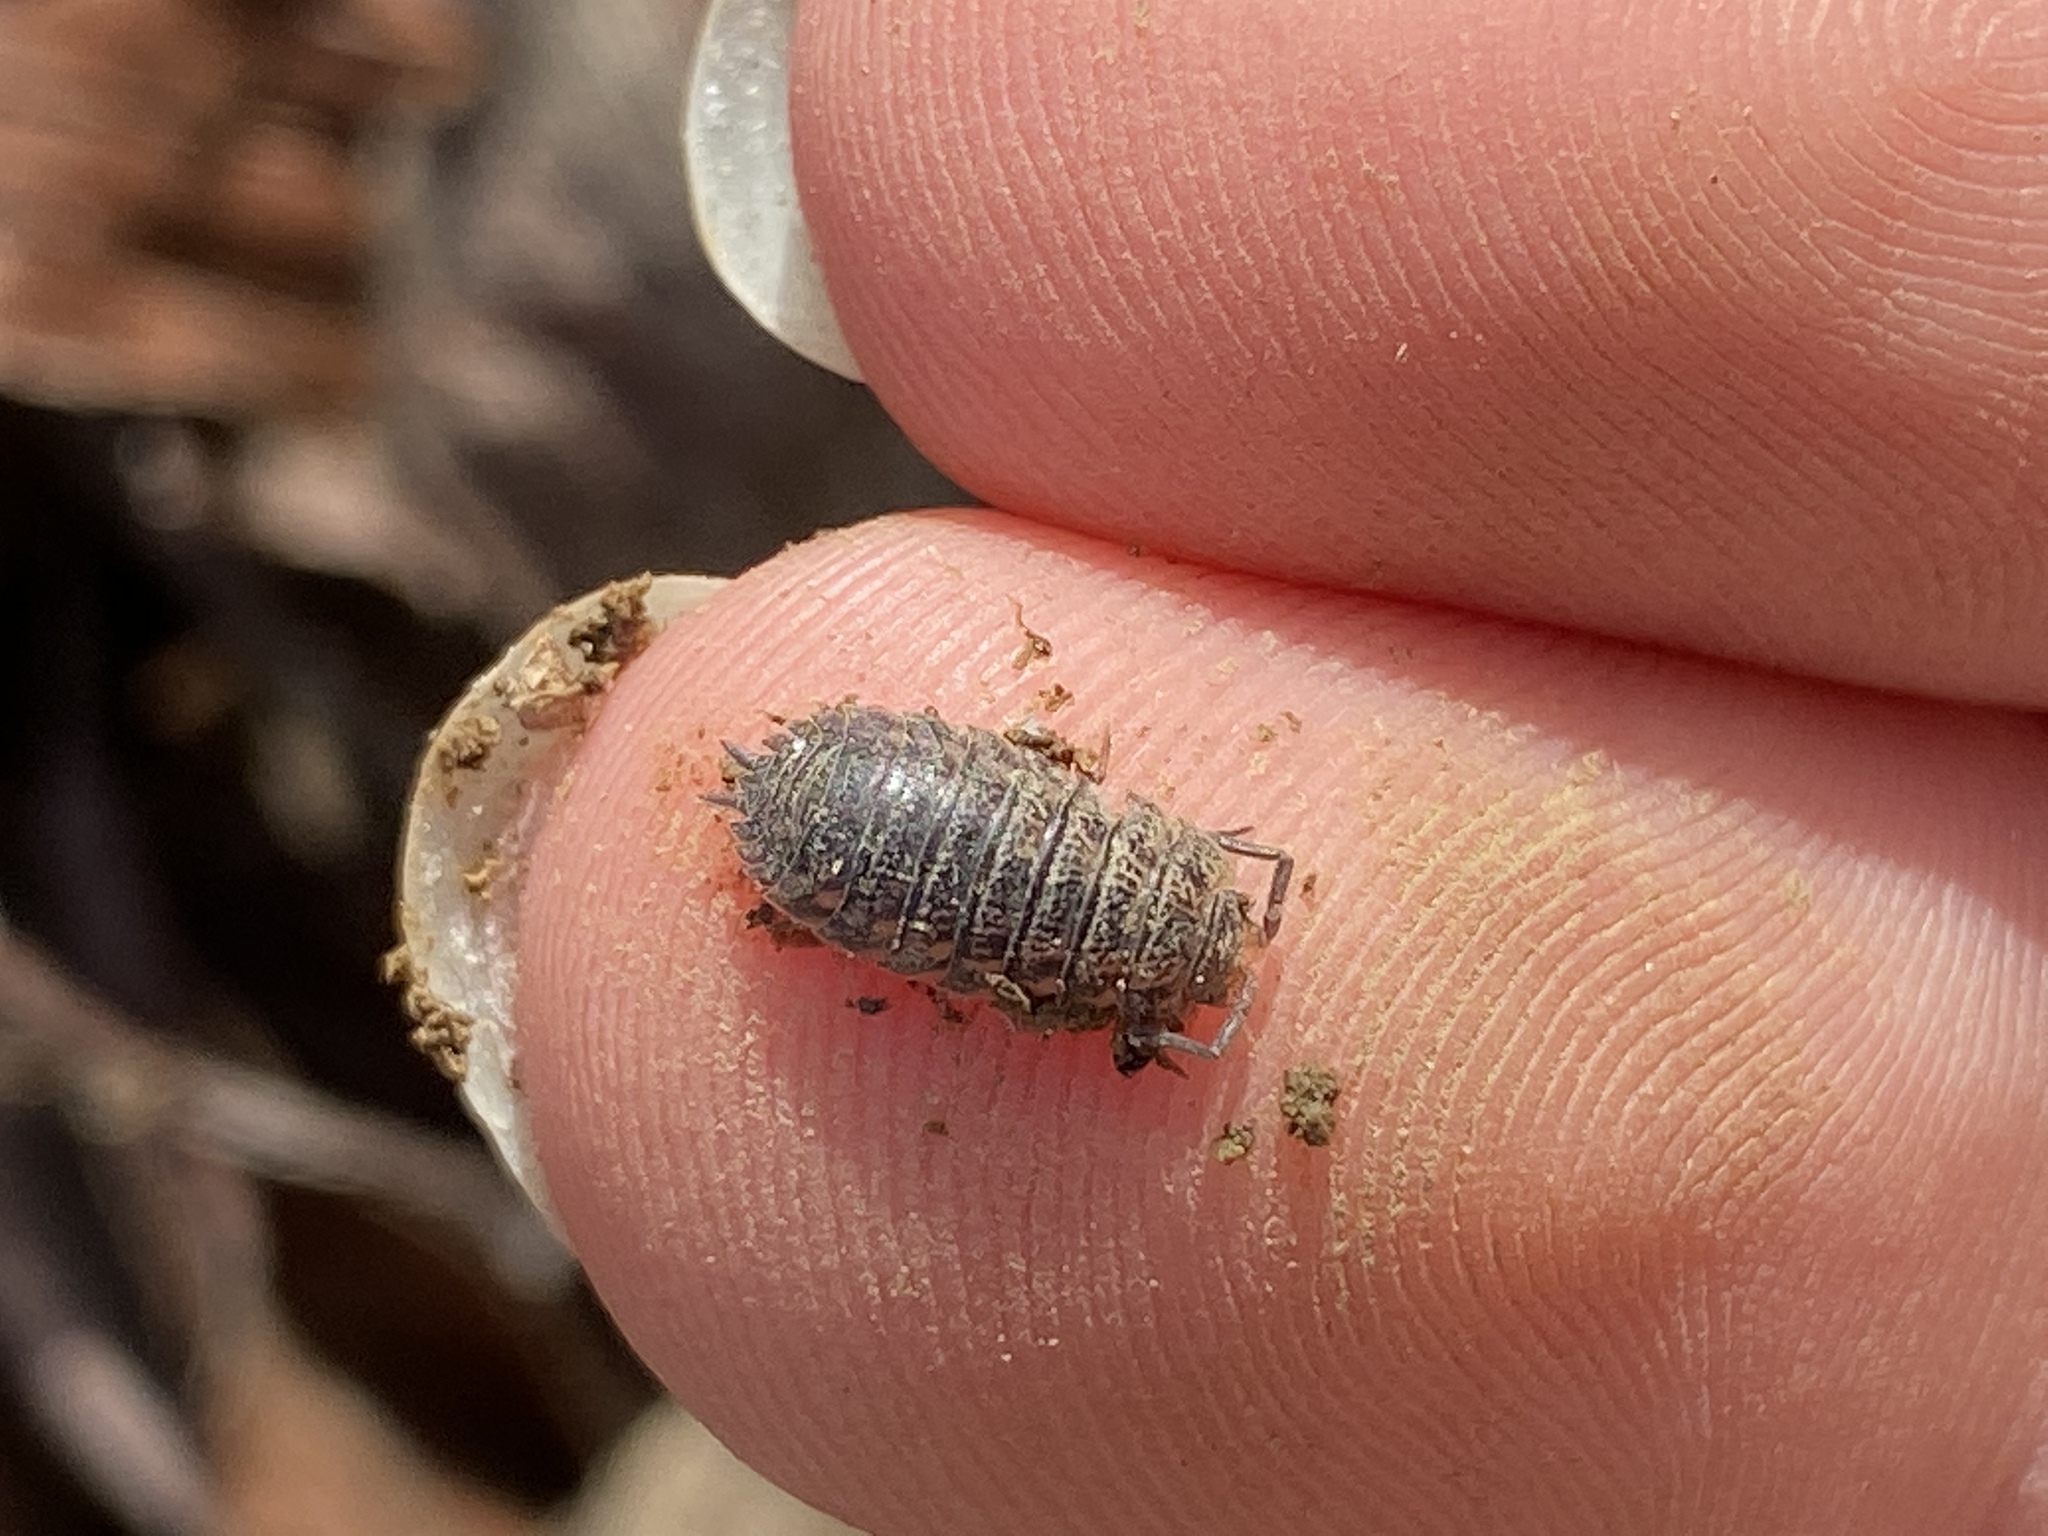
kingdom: Animalia
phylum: Arthropoda
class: Malacostraca
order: Isopoda
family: Trachelipodidae
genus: Trachelipus
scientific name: Trachelipus rathkii
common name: Isopod
